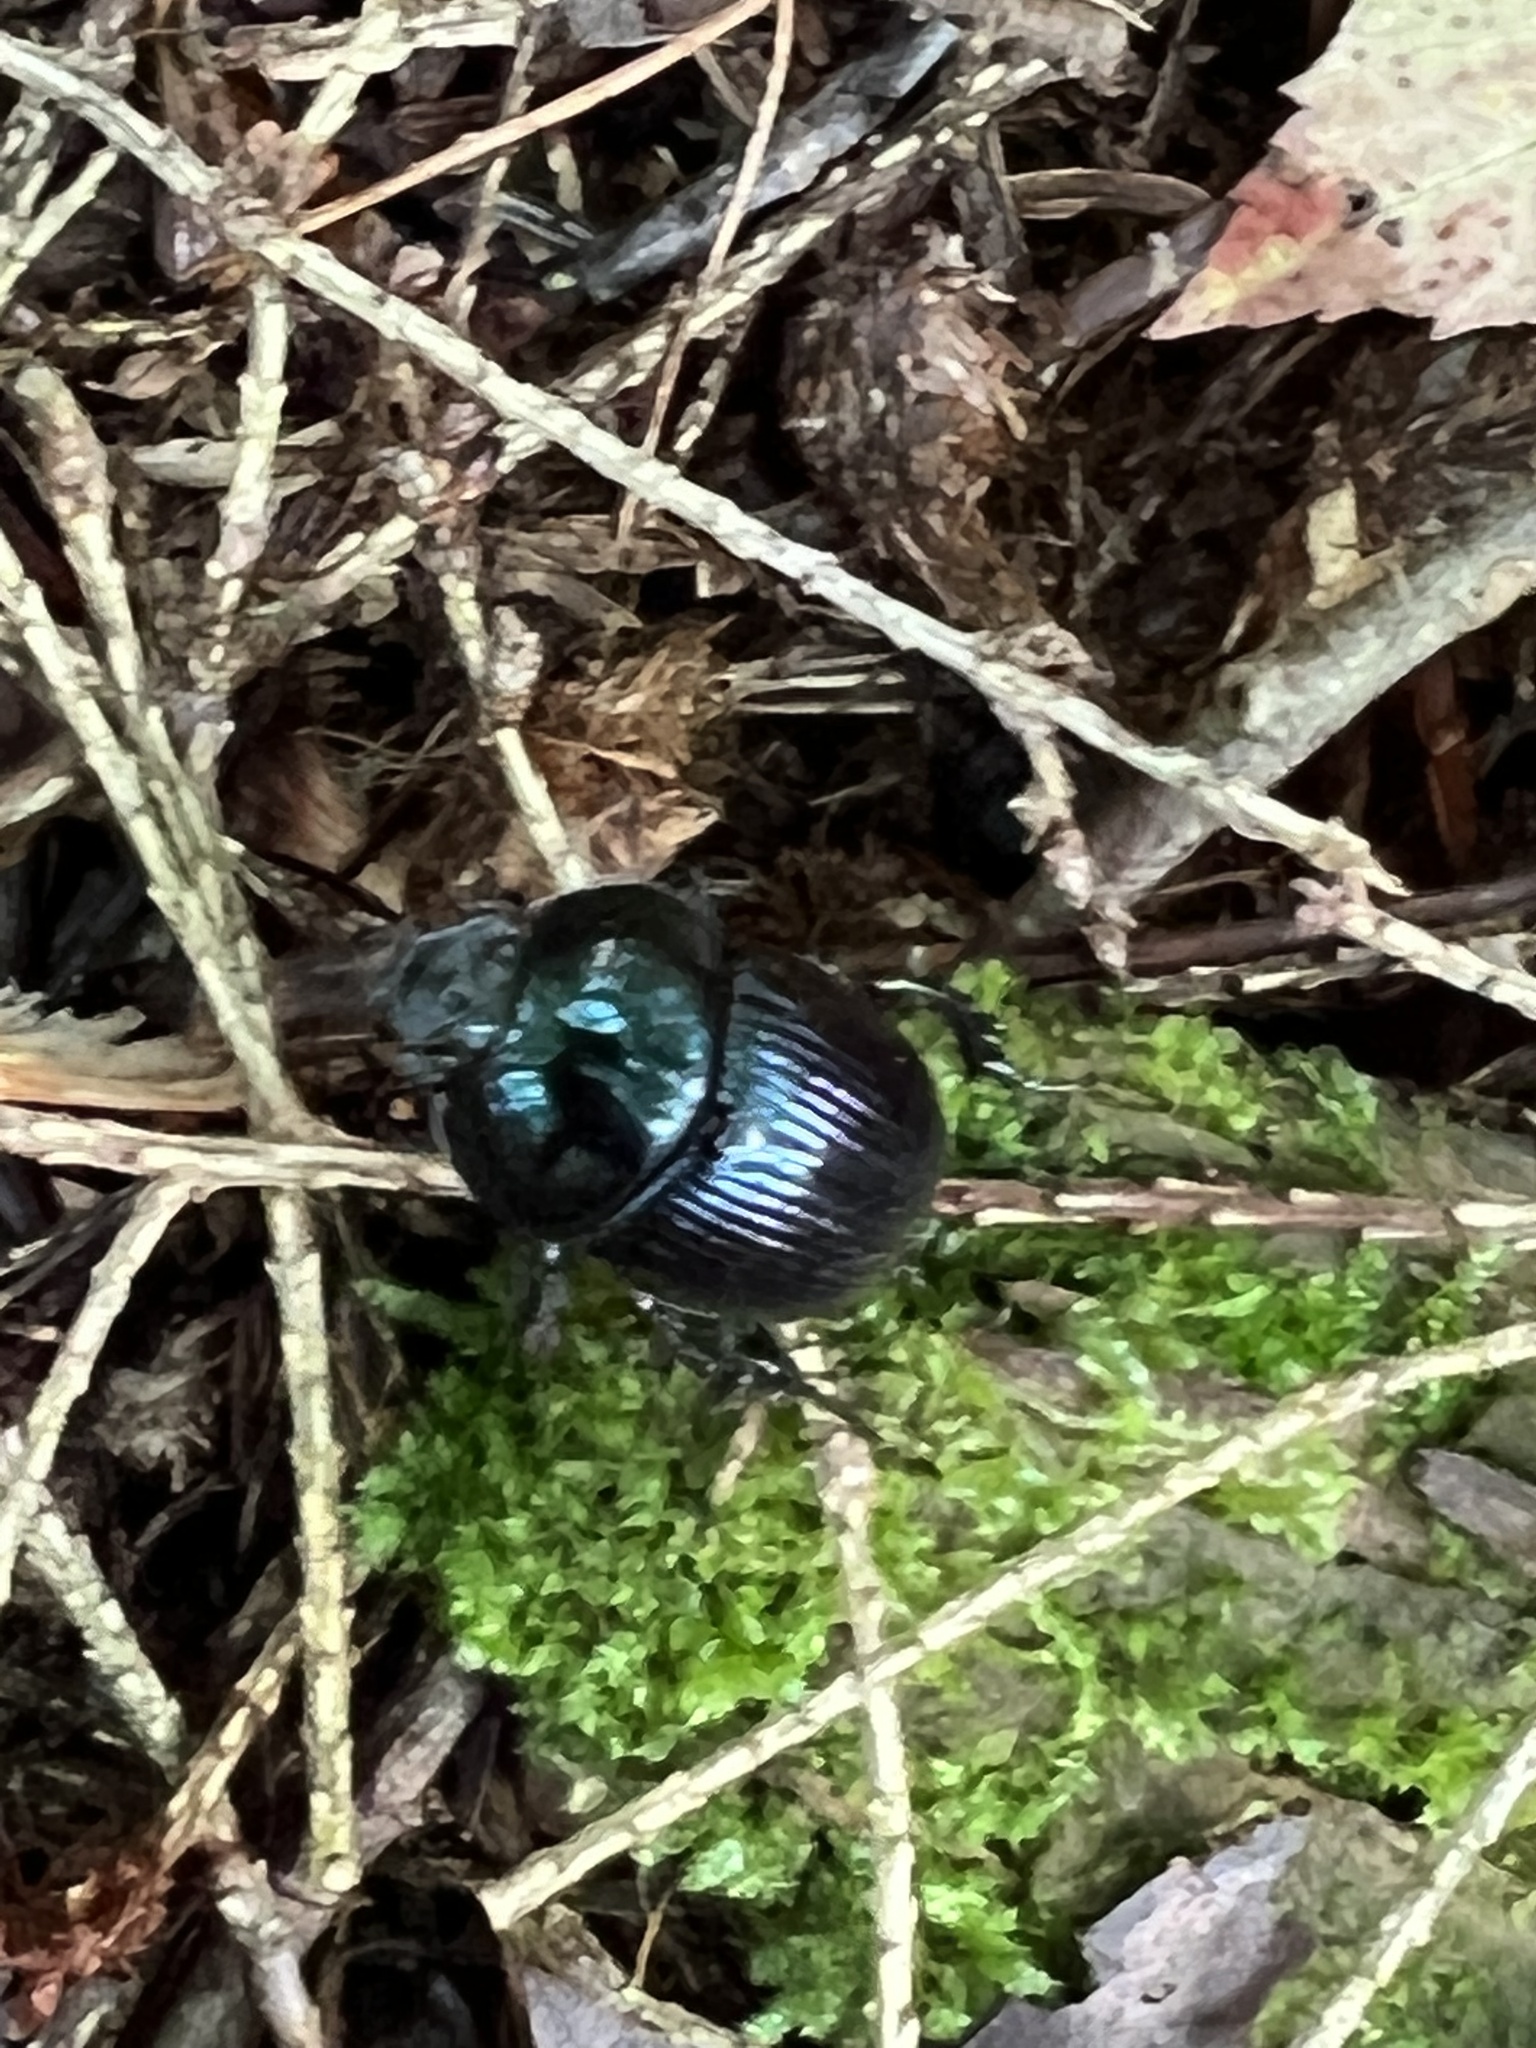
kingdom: Animalia
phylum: Arthropoda
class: Insecta
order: Coleoptera
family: Geotrupidae
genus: Anoplotrupes
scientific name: Anoplotrupes balyi
